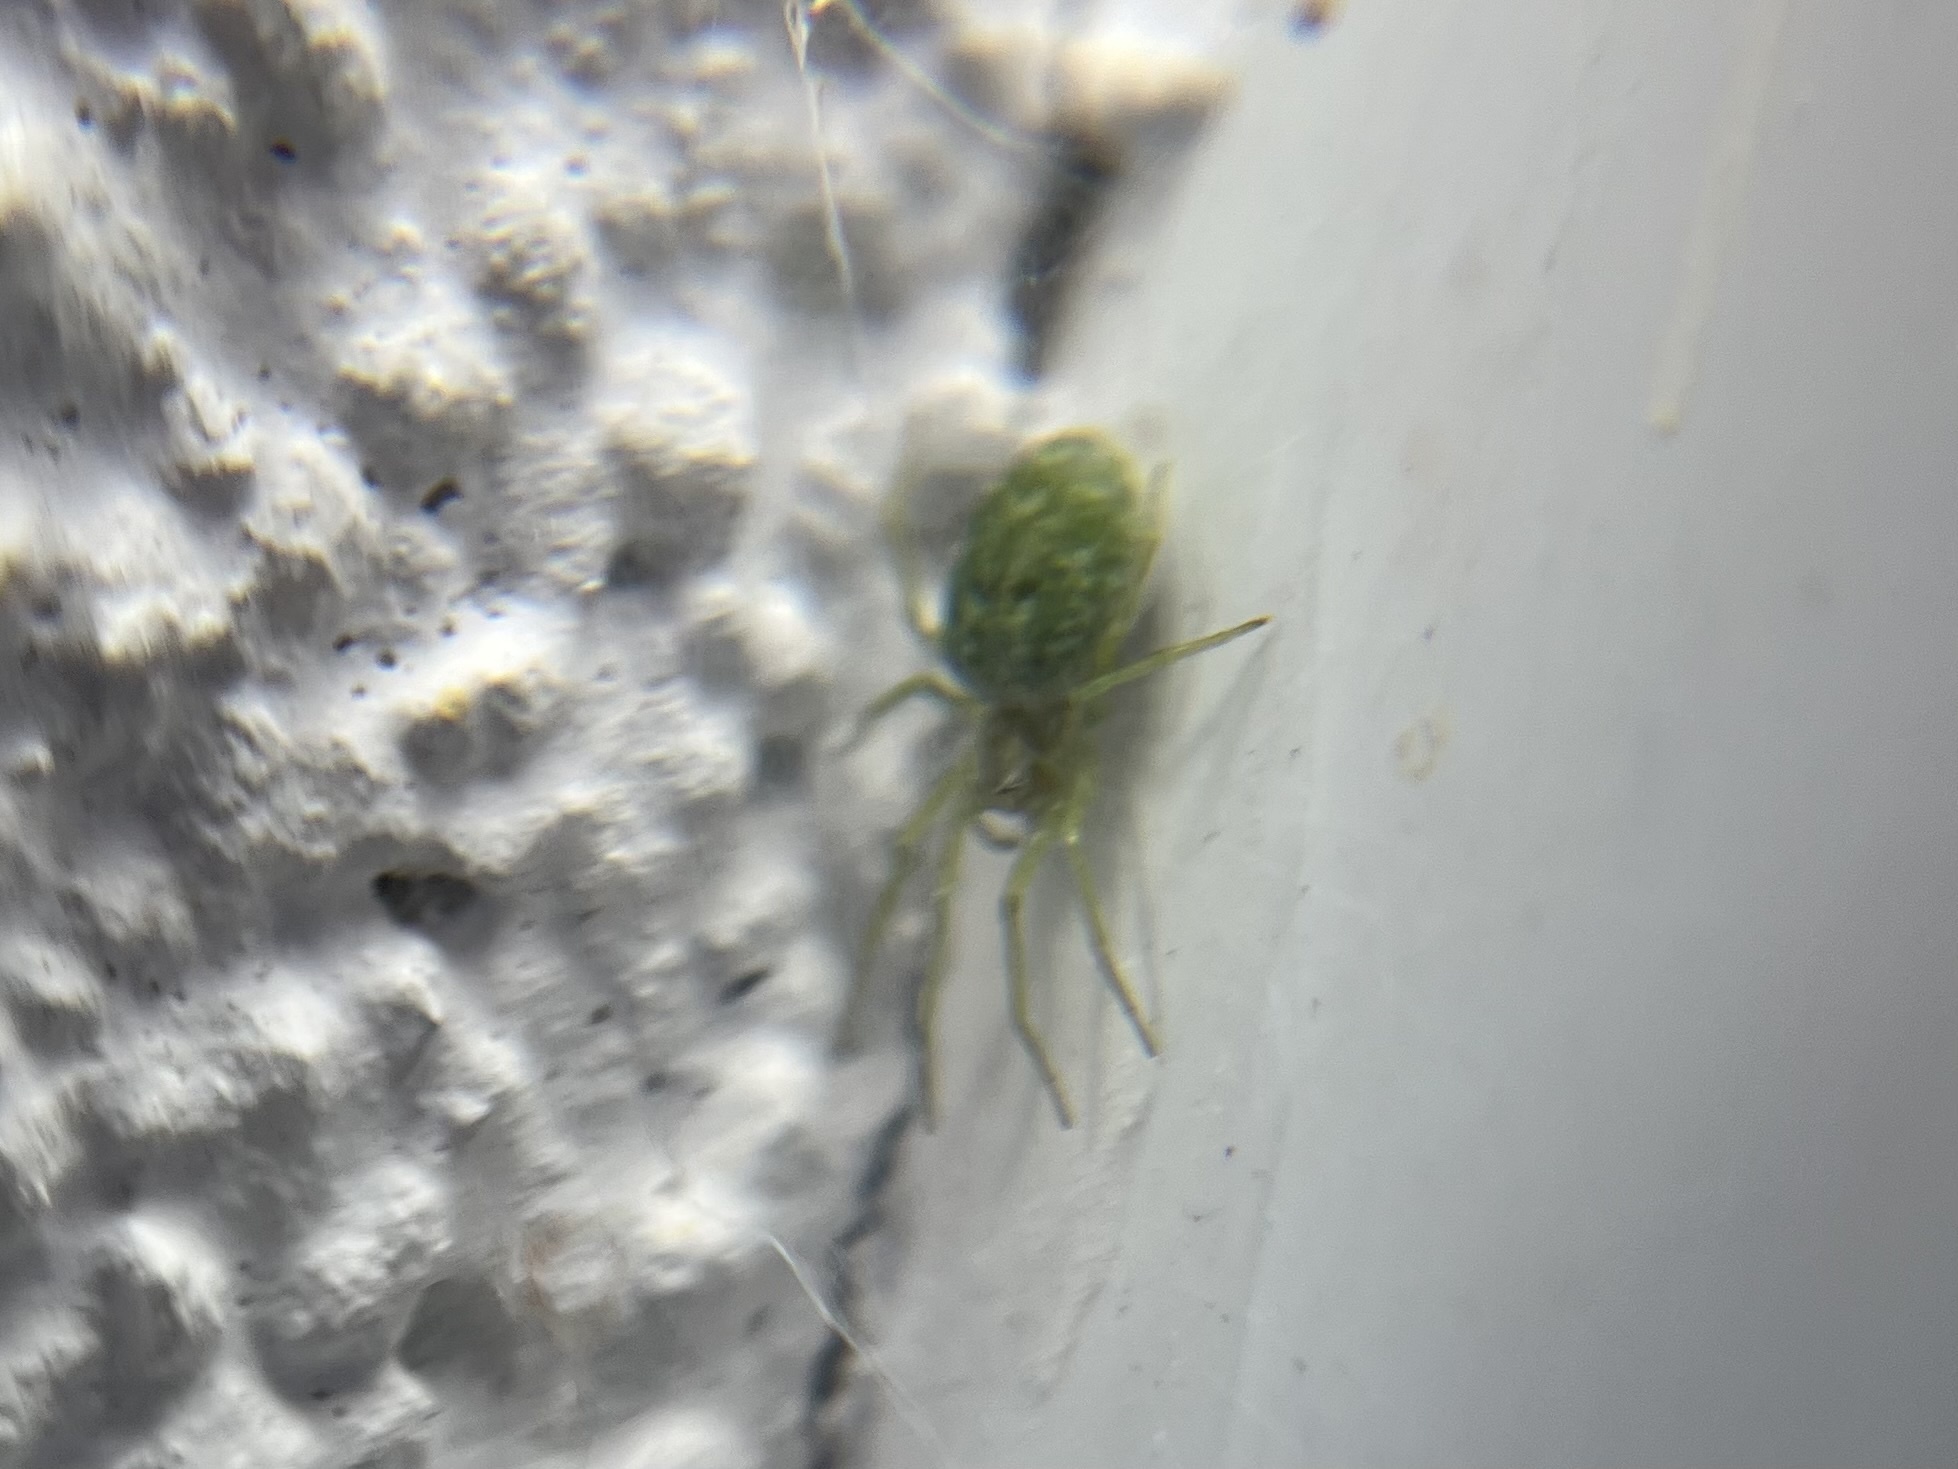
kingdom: Animalia
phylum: Arthropoda
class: Arachnida
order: Araneae
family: Dictynidae
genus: Nigma
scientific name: Nigma walckenaeri
